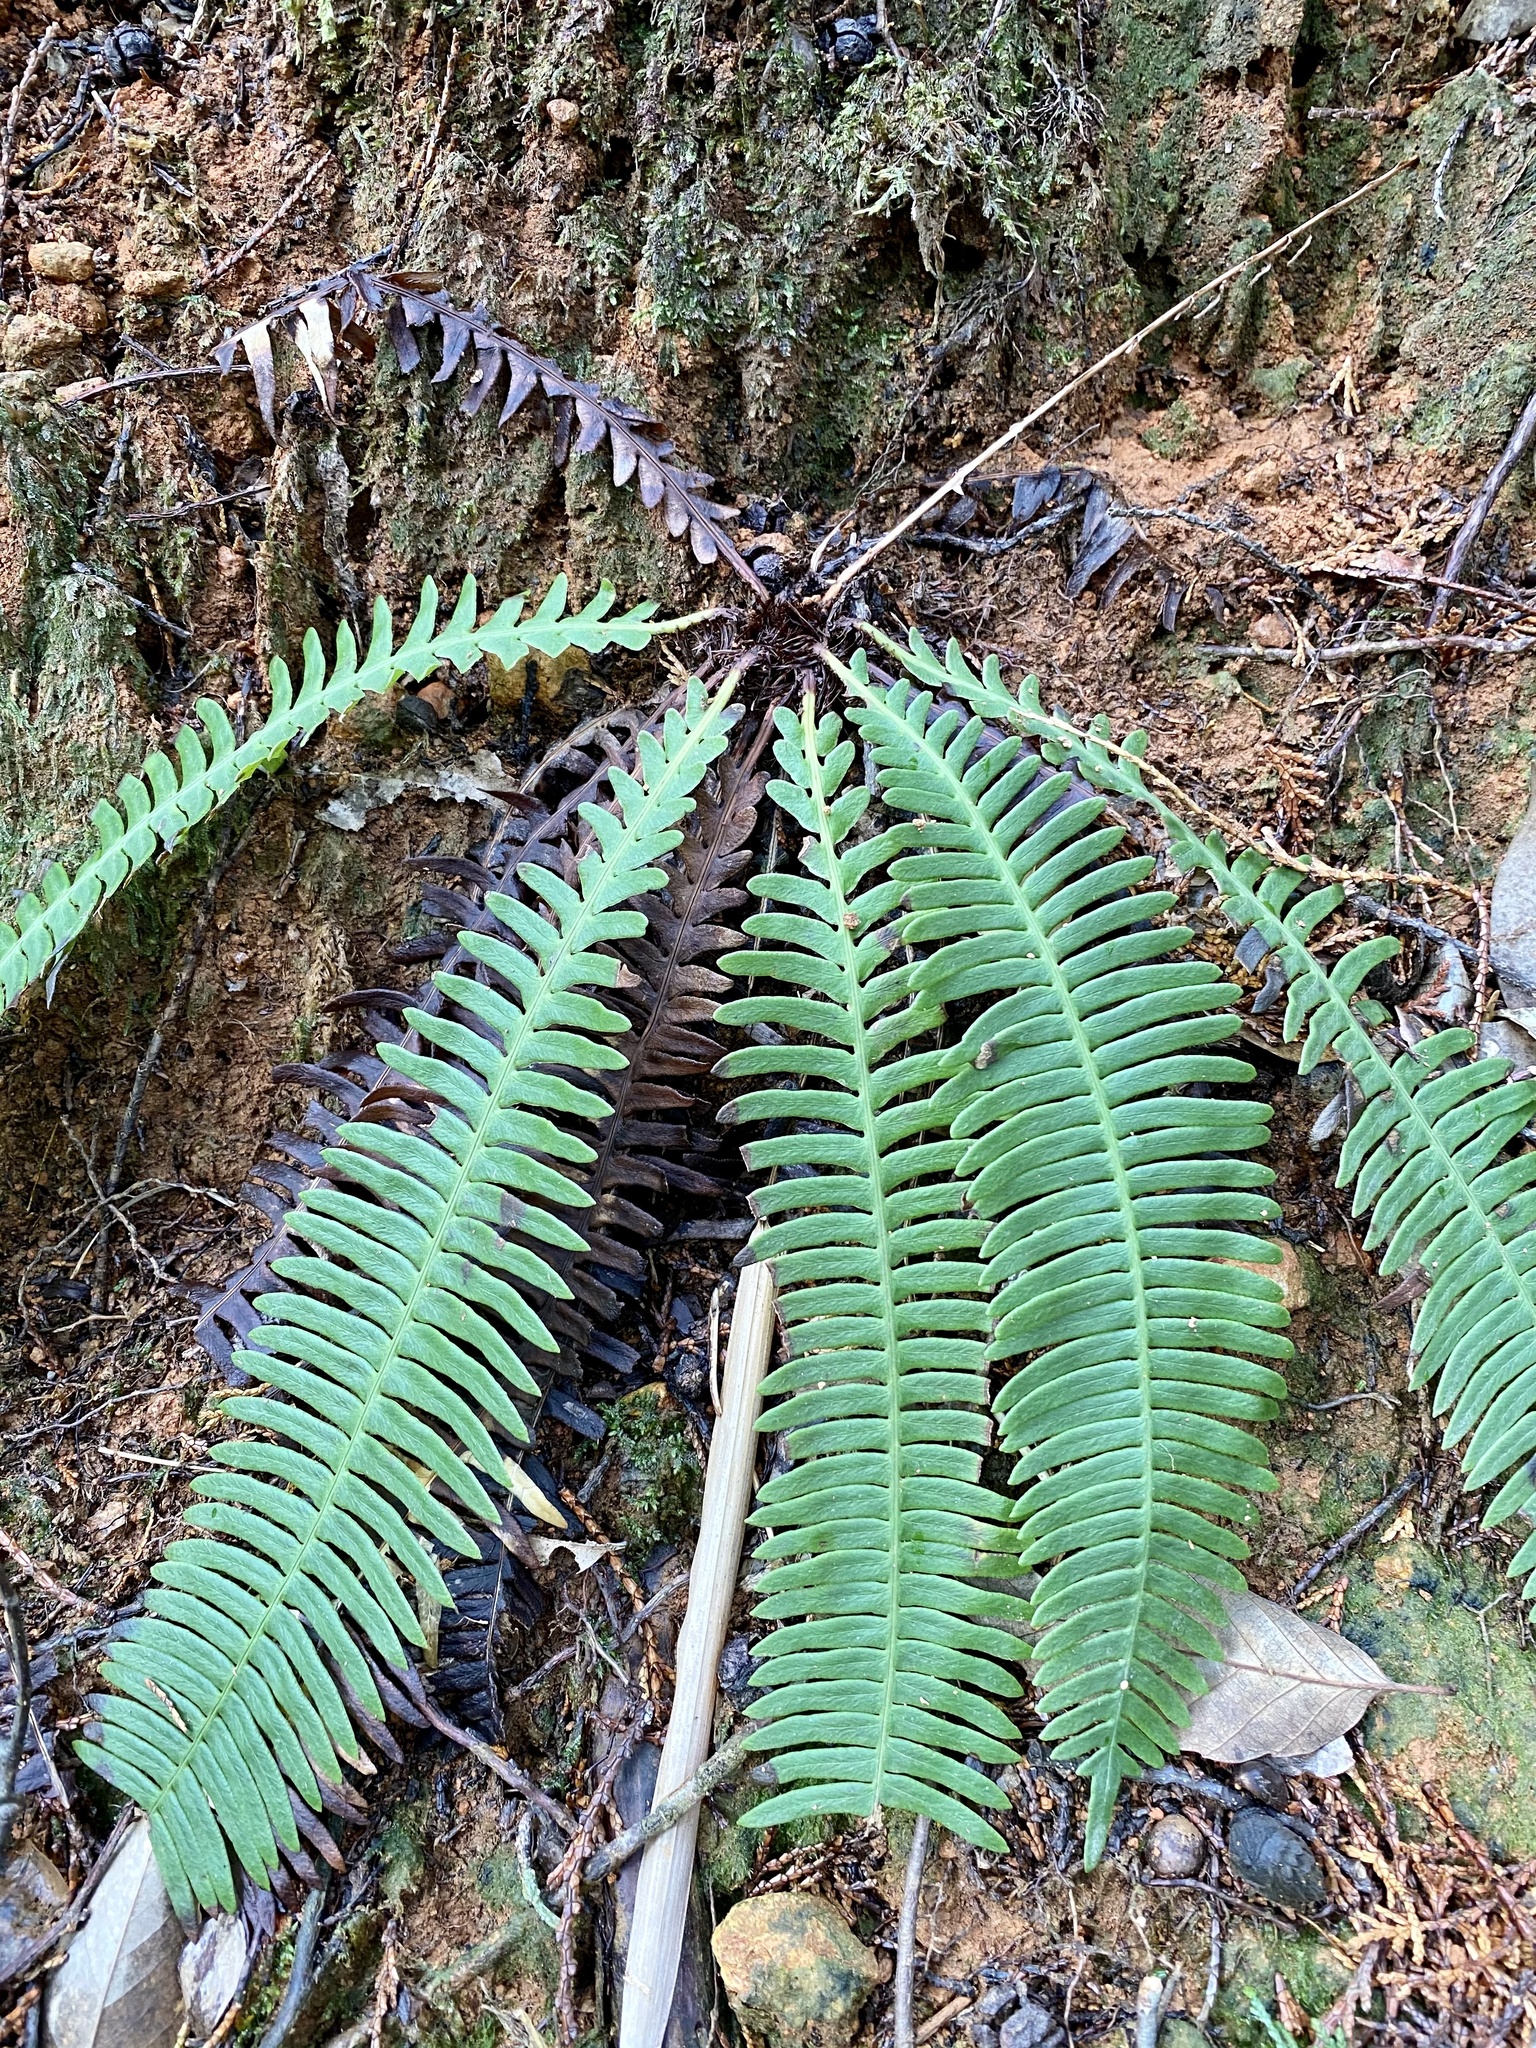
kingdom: Plantae
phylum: Tracheophyta
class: Polypodiopsida
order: Polypodiales
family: Blechnaceae
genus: Spicantopsis
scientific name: Spicantopsis niponica
